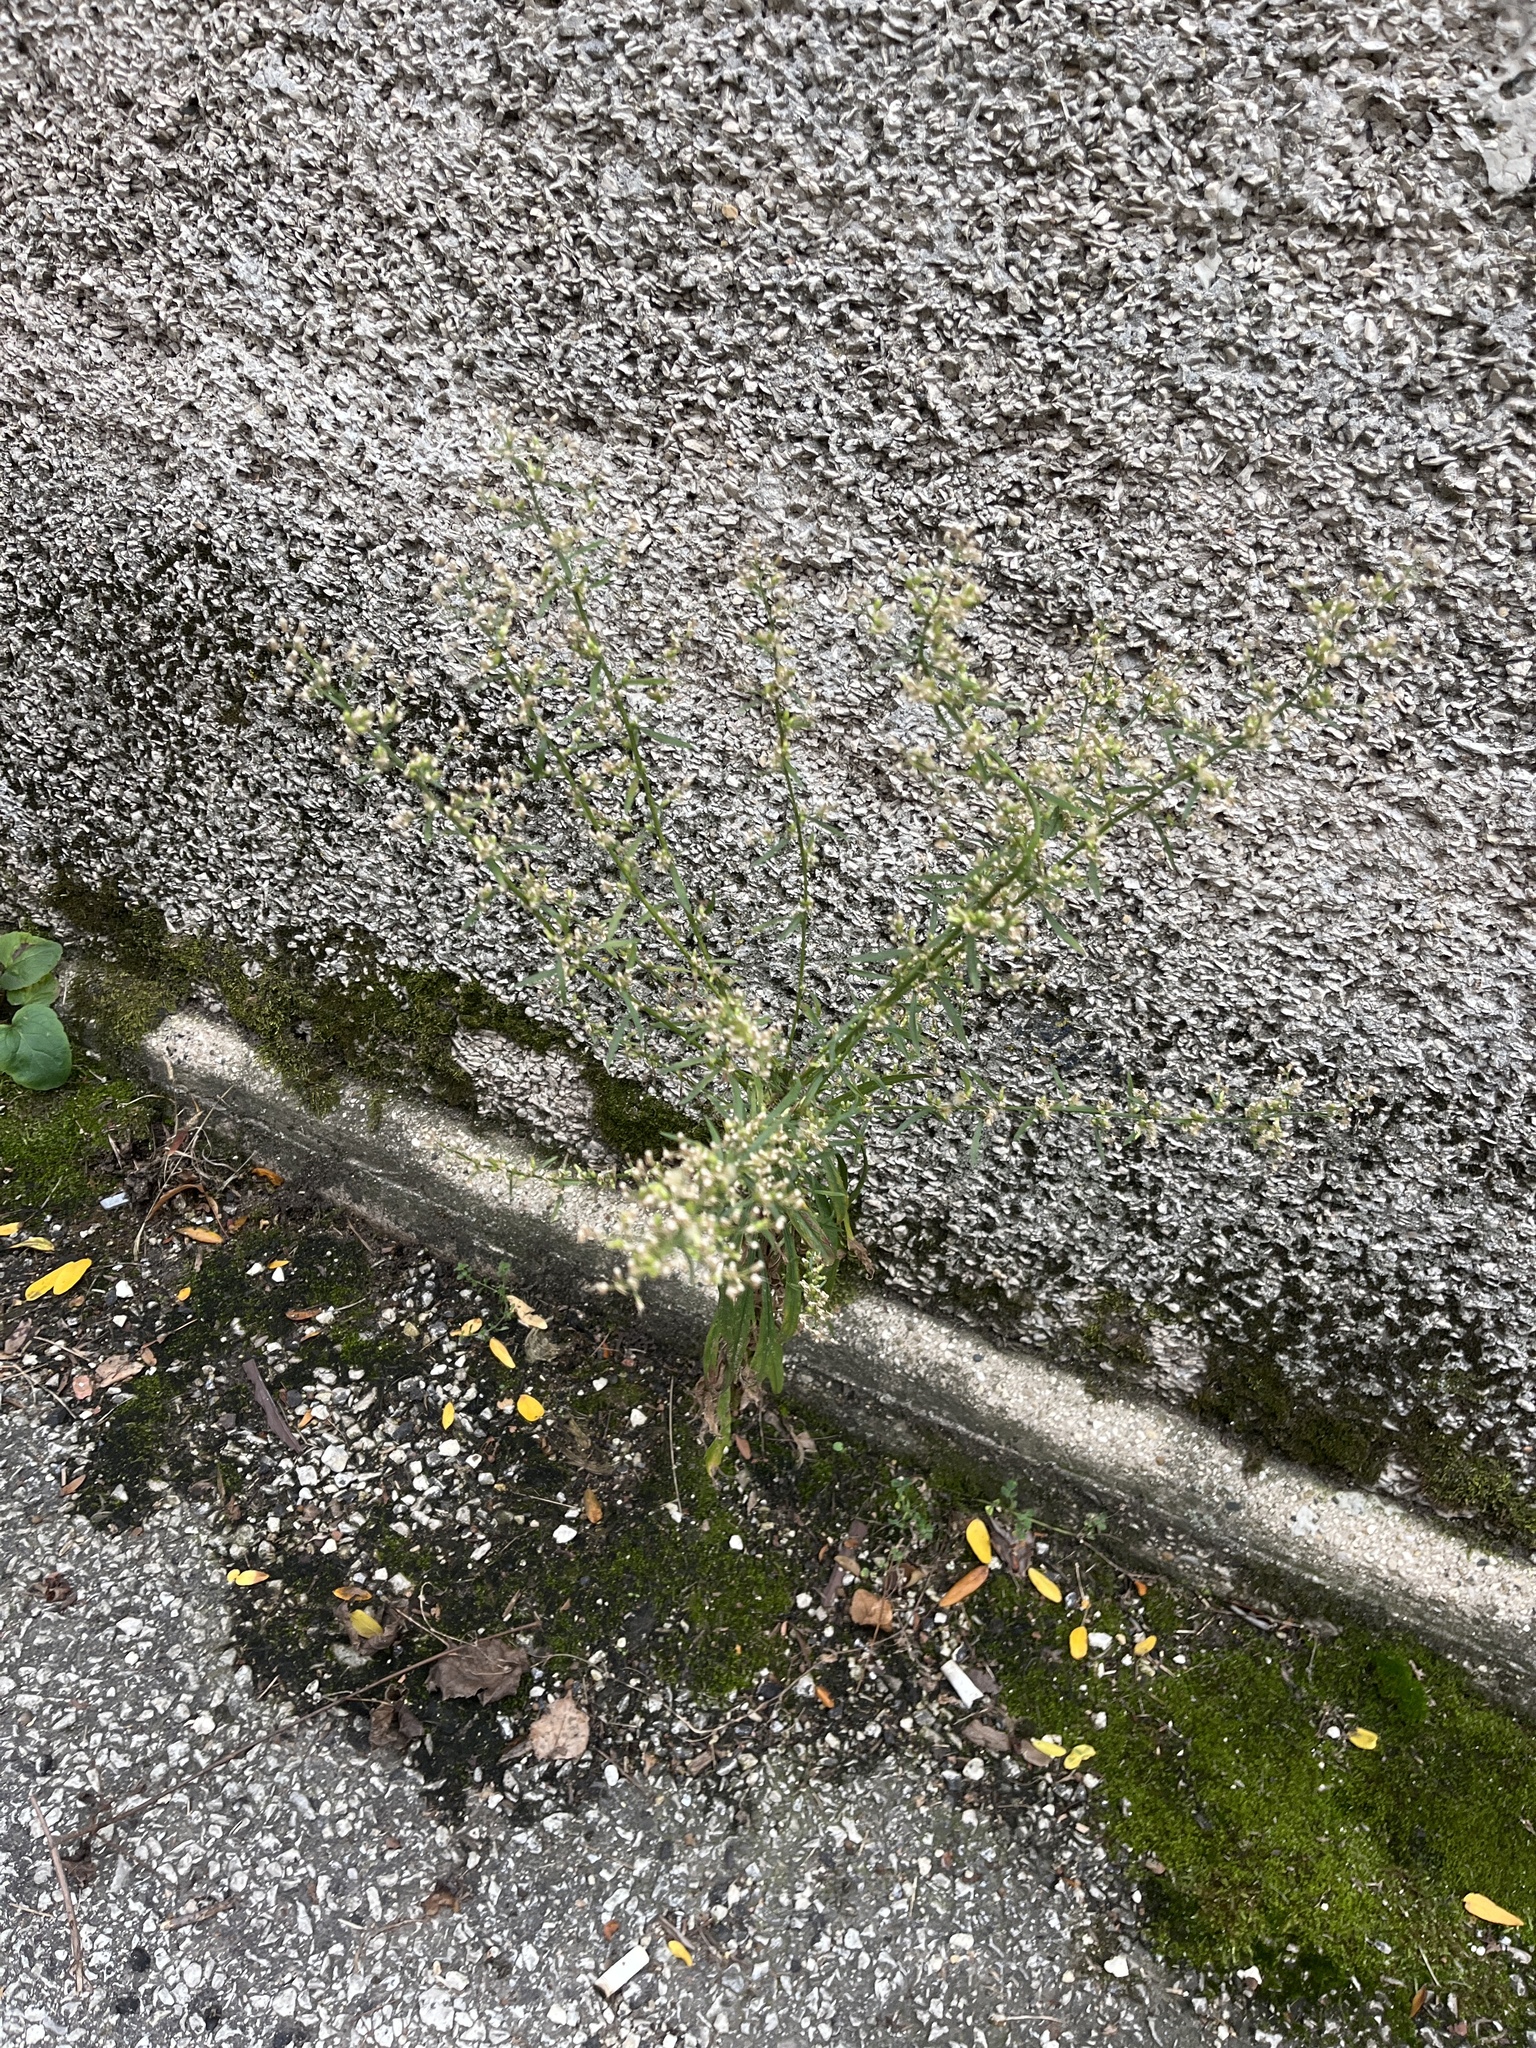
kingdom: Plantae
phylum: Tracheophyta
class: Magnoliopsida
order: Asterales
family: Asteraceae
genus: Erigeron
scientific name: Erigeron canadensis
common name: Canadian fleabane
